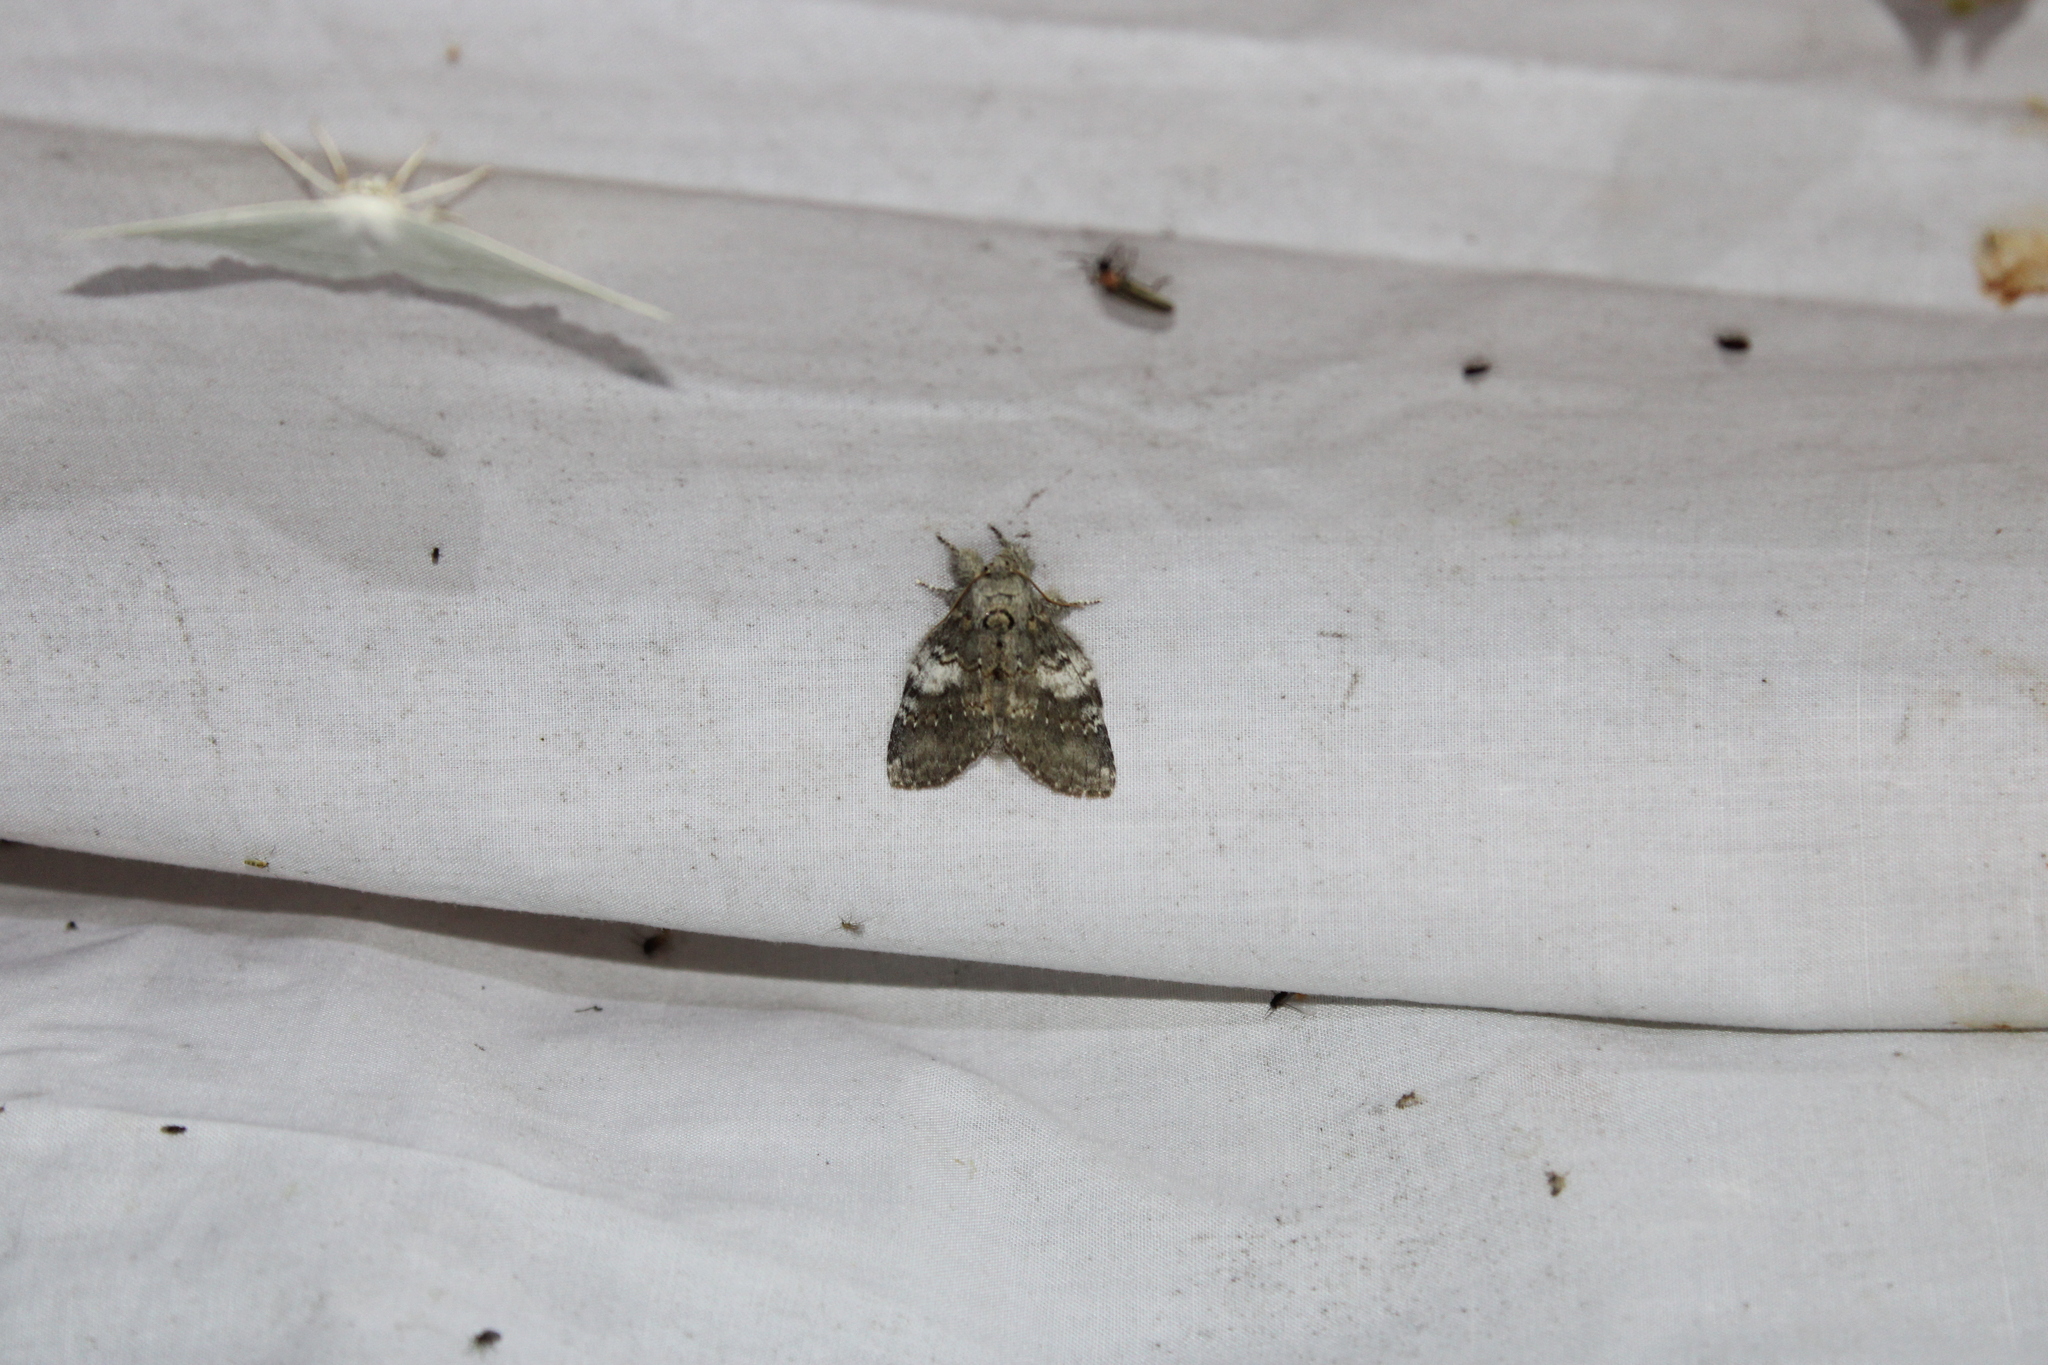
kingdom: Animalia
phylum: Arthropoda
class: Insecta
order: Lepidoptera
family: Notodontidae
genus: Peridea
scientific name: Peridea angulosa
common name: Angulose prominent
